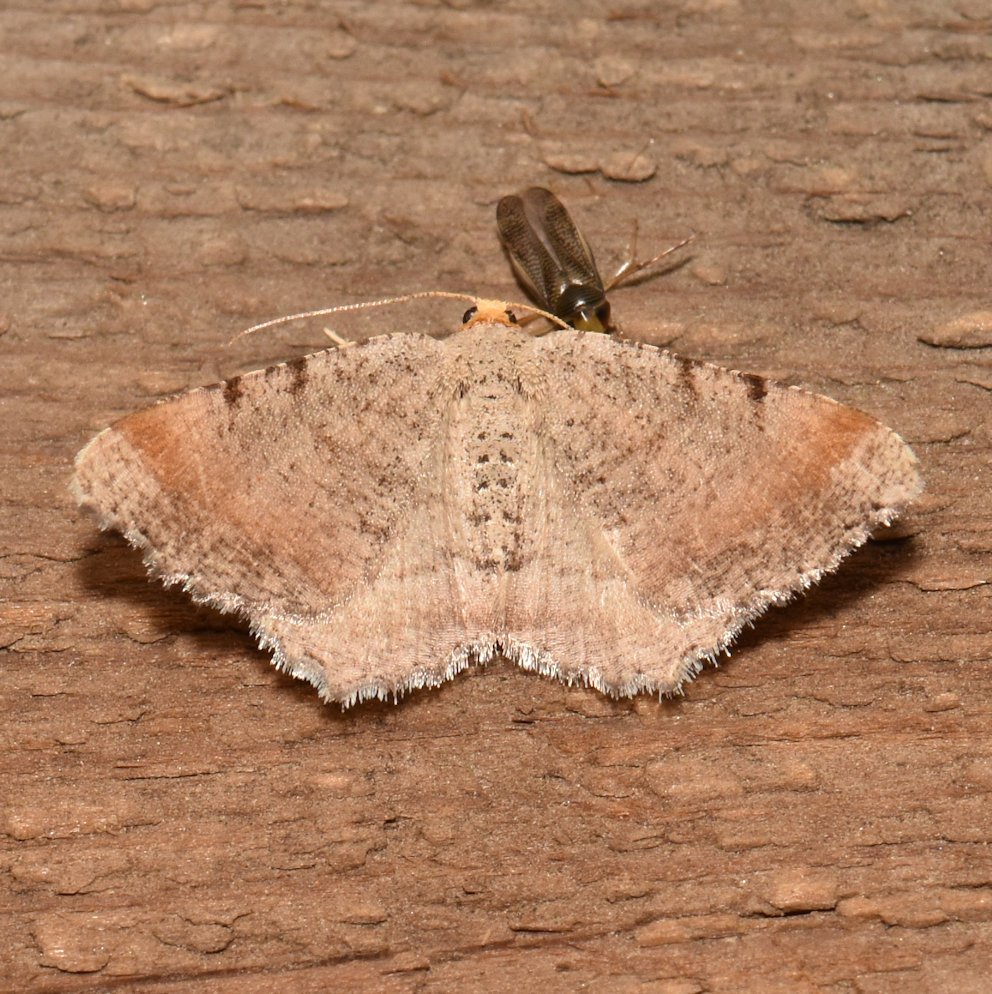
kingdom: Animalia
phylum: Arthropoda
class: Insecta
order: Lepidoptera
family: Geometridae
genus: Macaria
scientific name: Macaria minorata
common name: Minor angle moth
